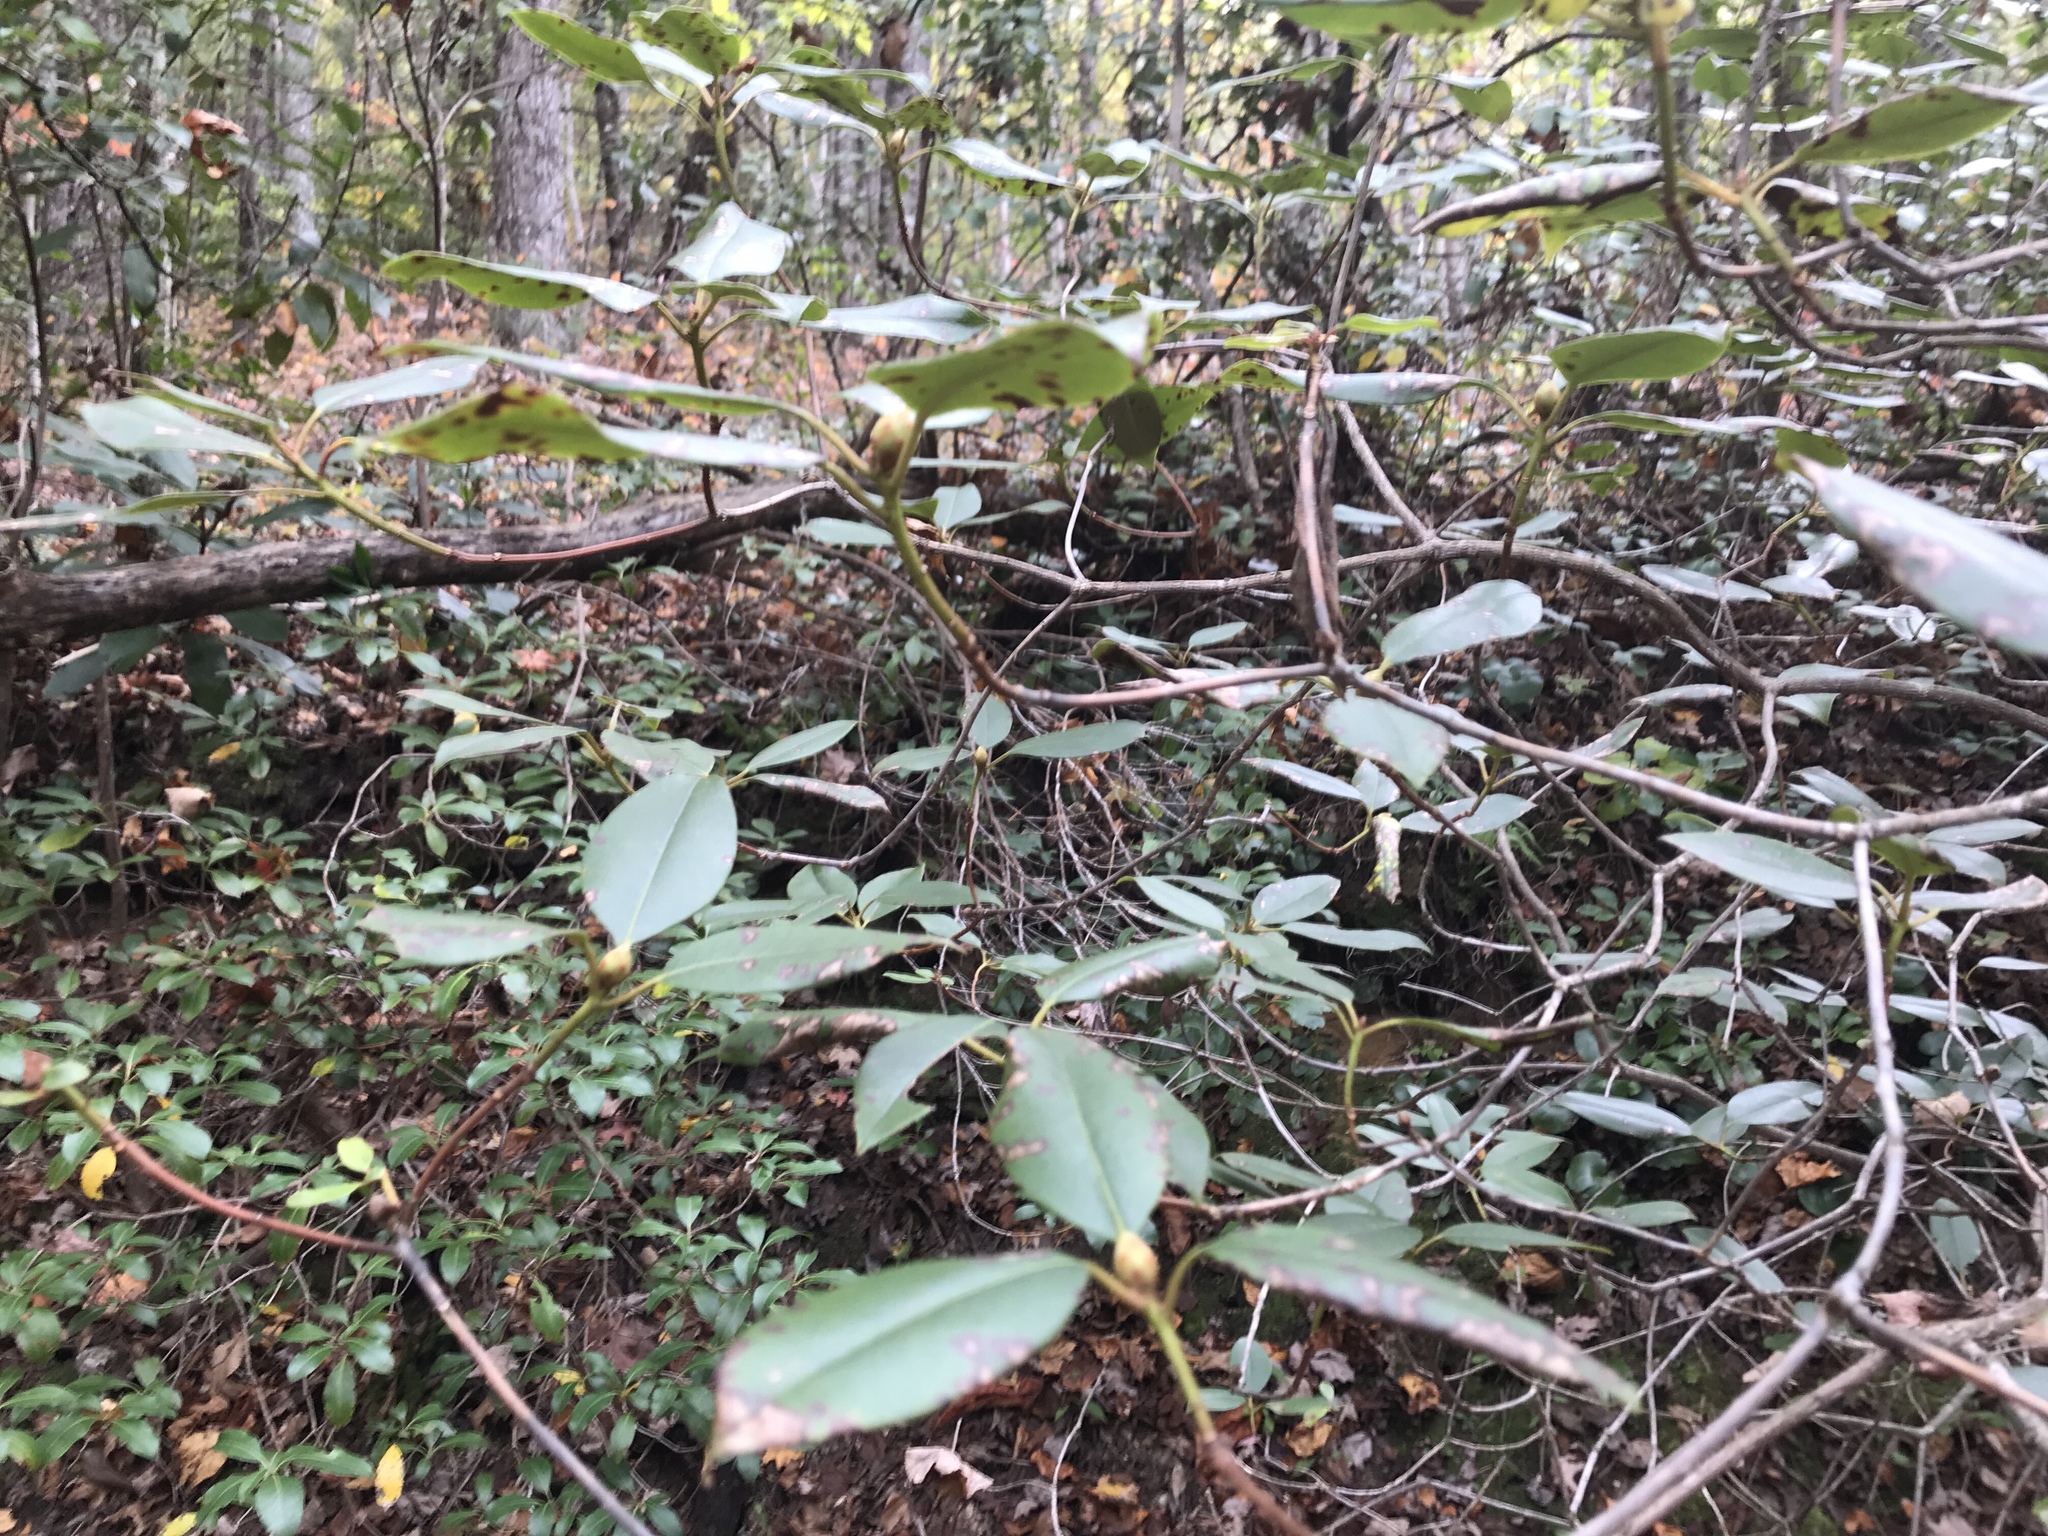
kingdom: Plantae
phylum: Tracheophyta
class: Magnoliopsida
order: Ericales
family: Ericaceae
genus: Rhododendron
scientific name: Rhododendron minus
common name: Piedmont rhododendron
